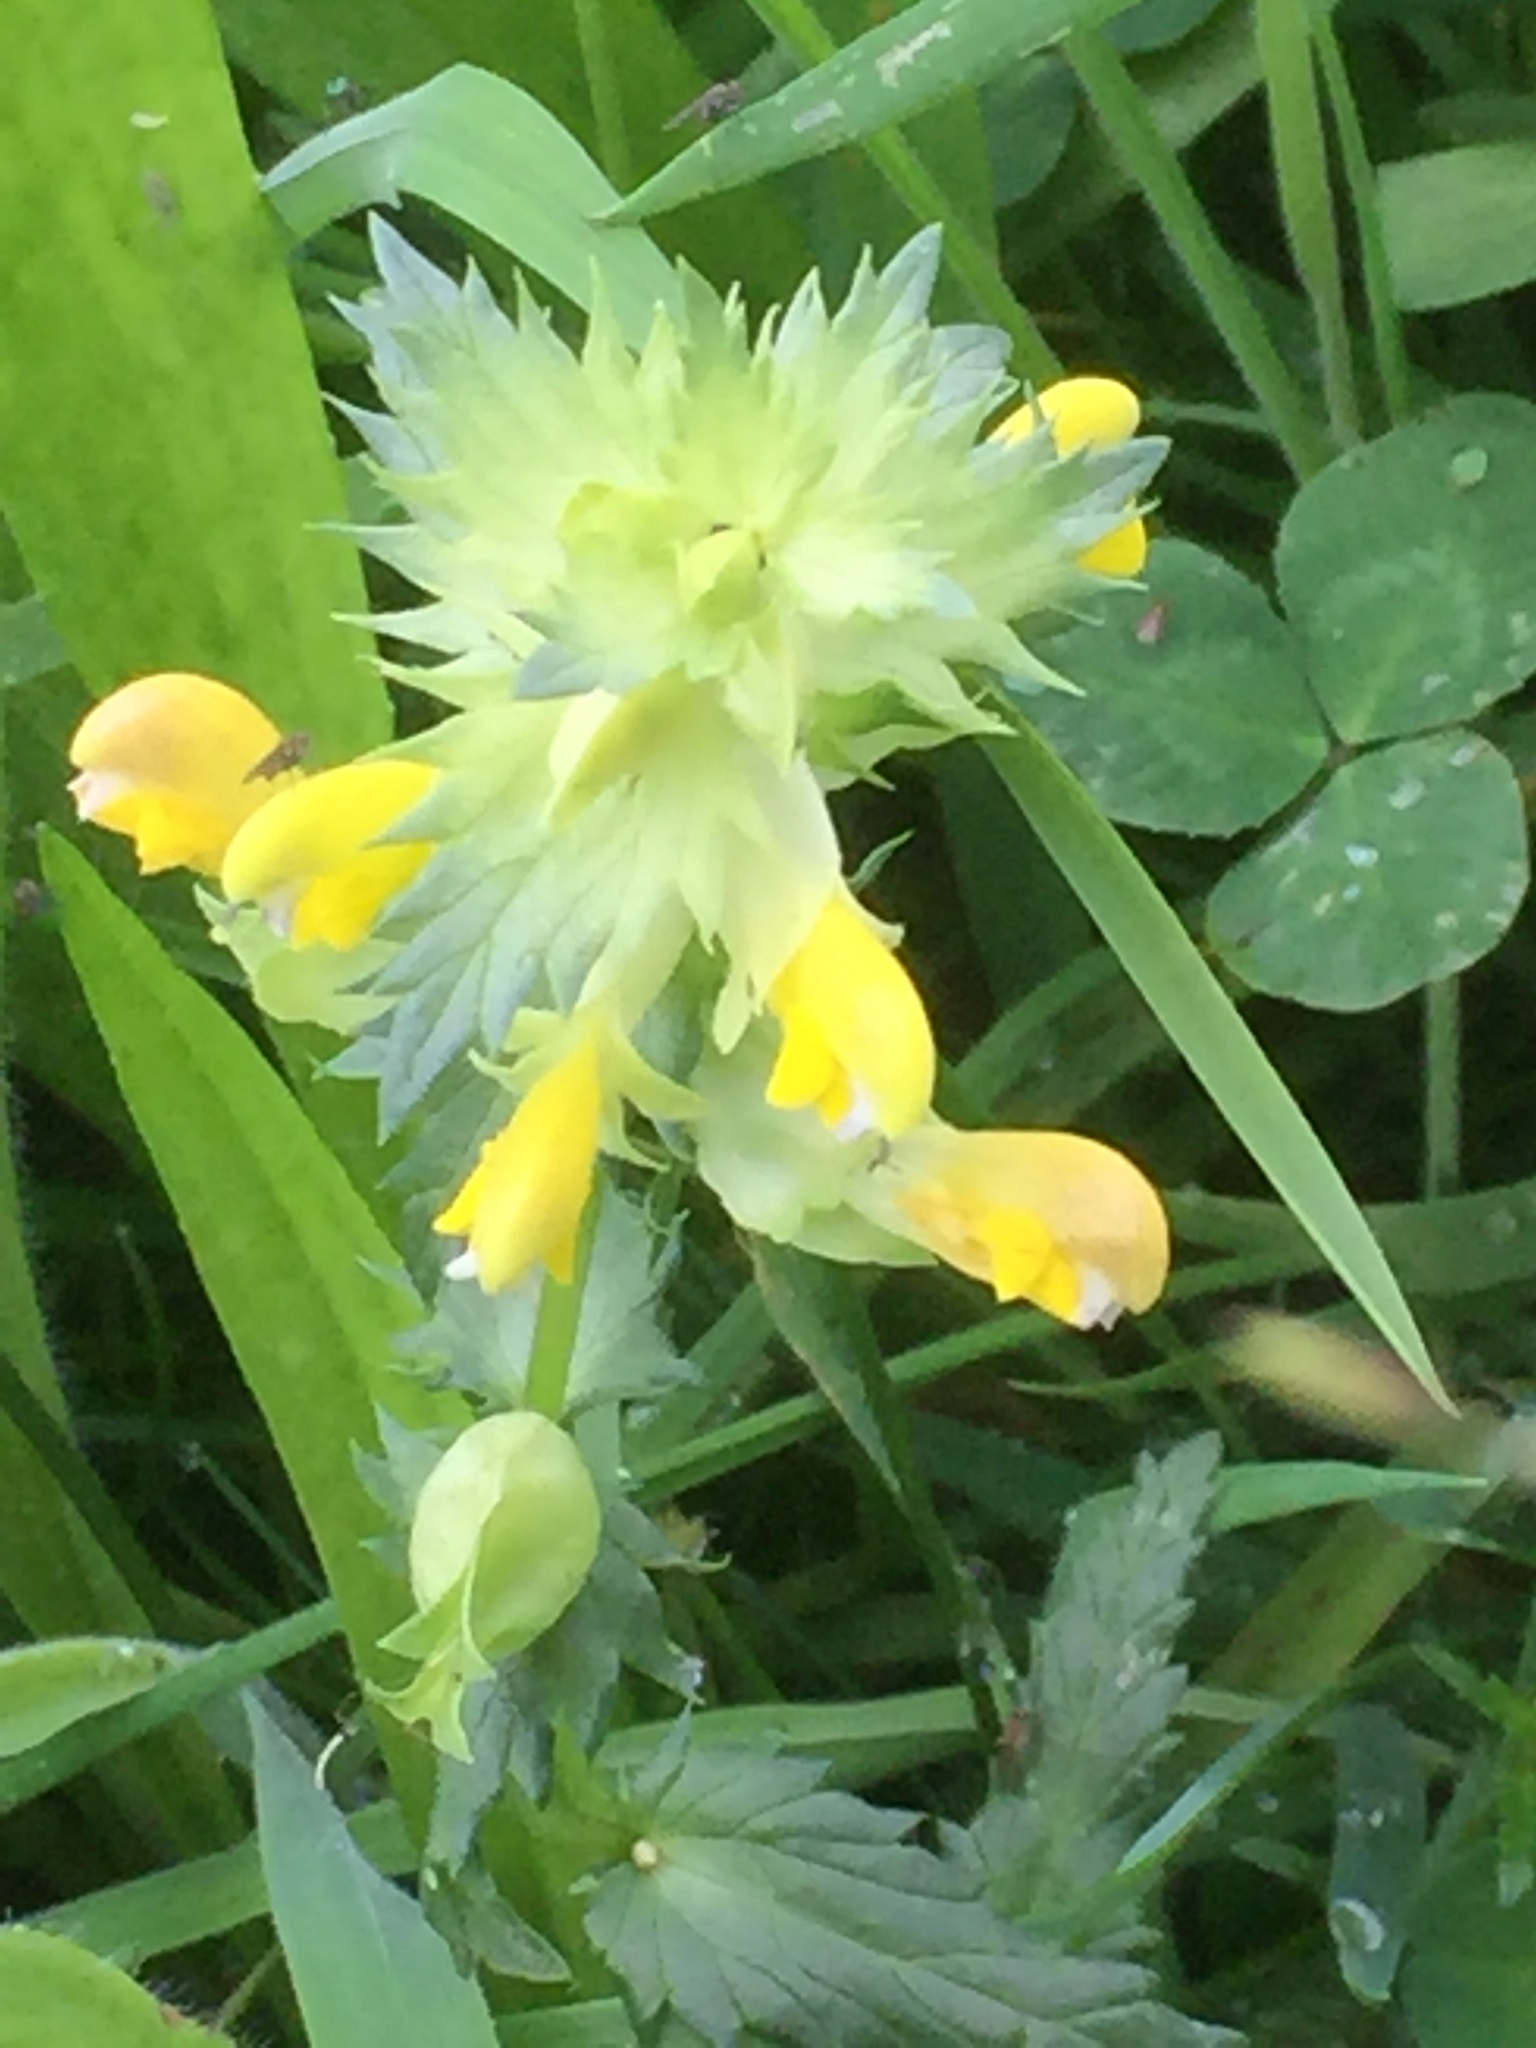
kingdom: Plantae
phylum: Tracheophyta
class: Magnoliopsida
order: Lamiales
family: Orobanchaceae
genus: Rhinanthus
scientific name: Rhinanthus serotinus
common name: Late-flowering yellow rattle
